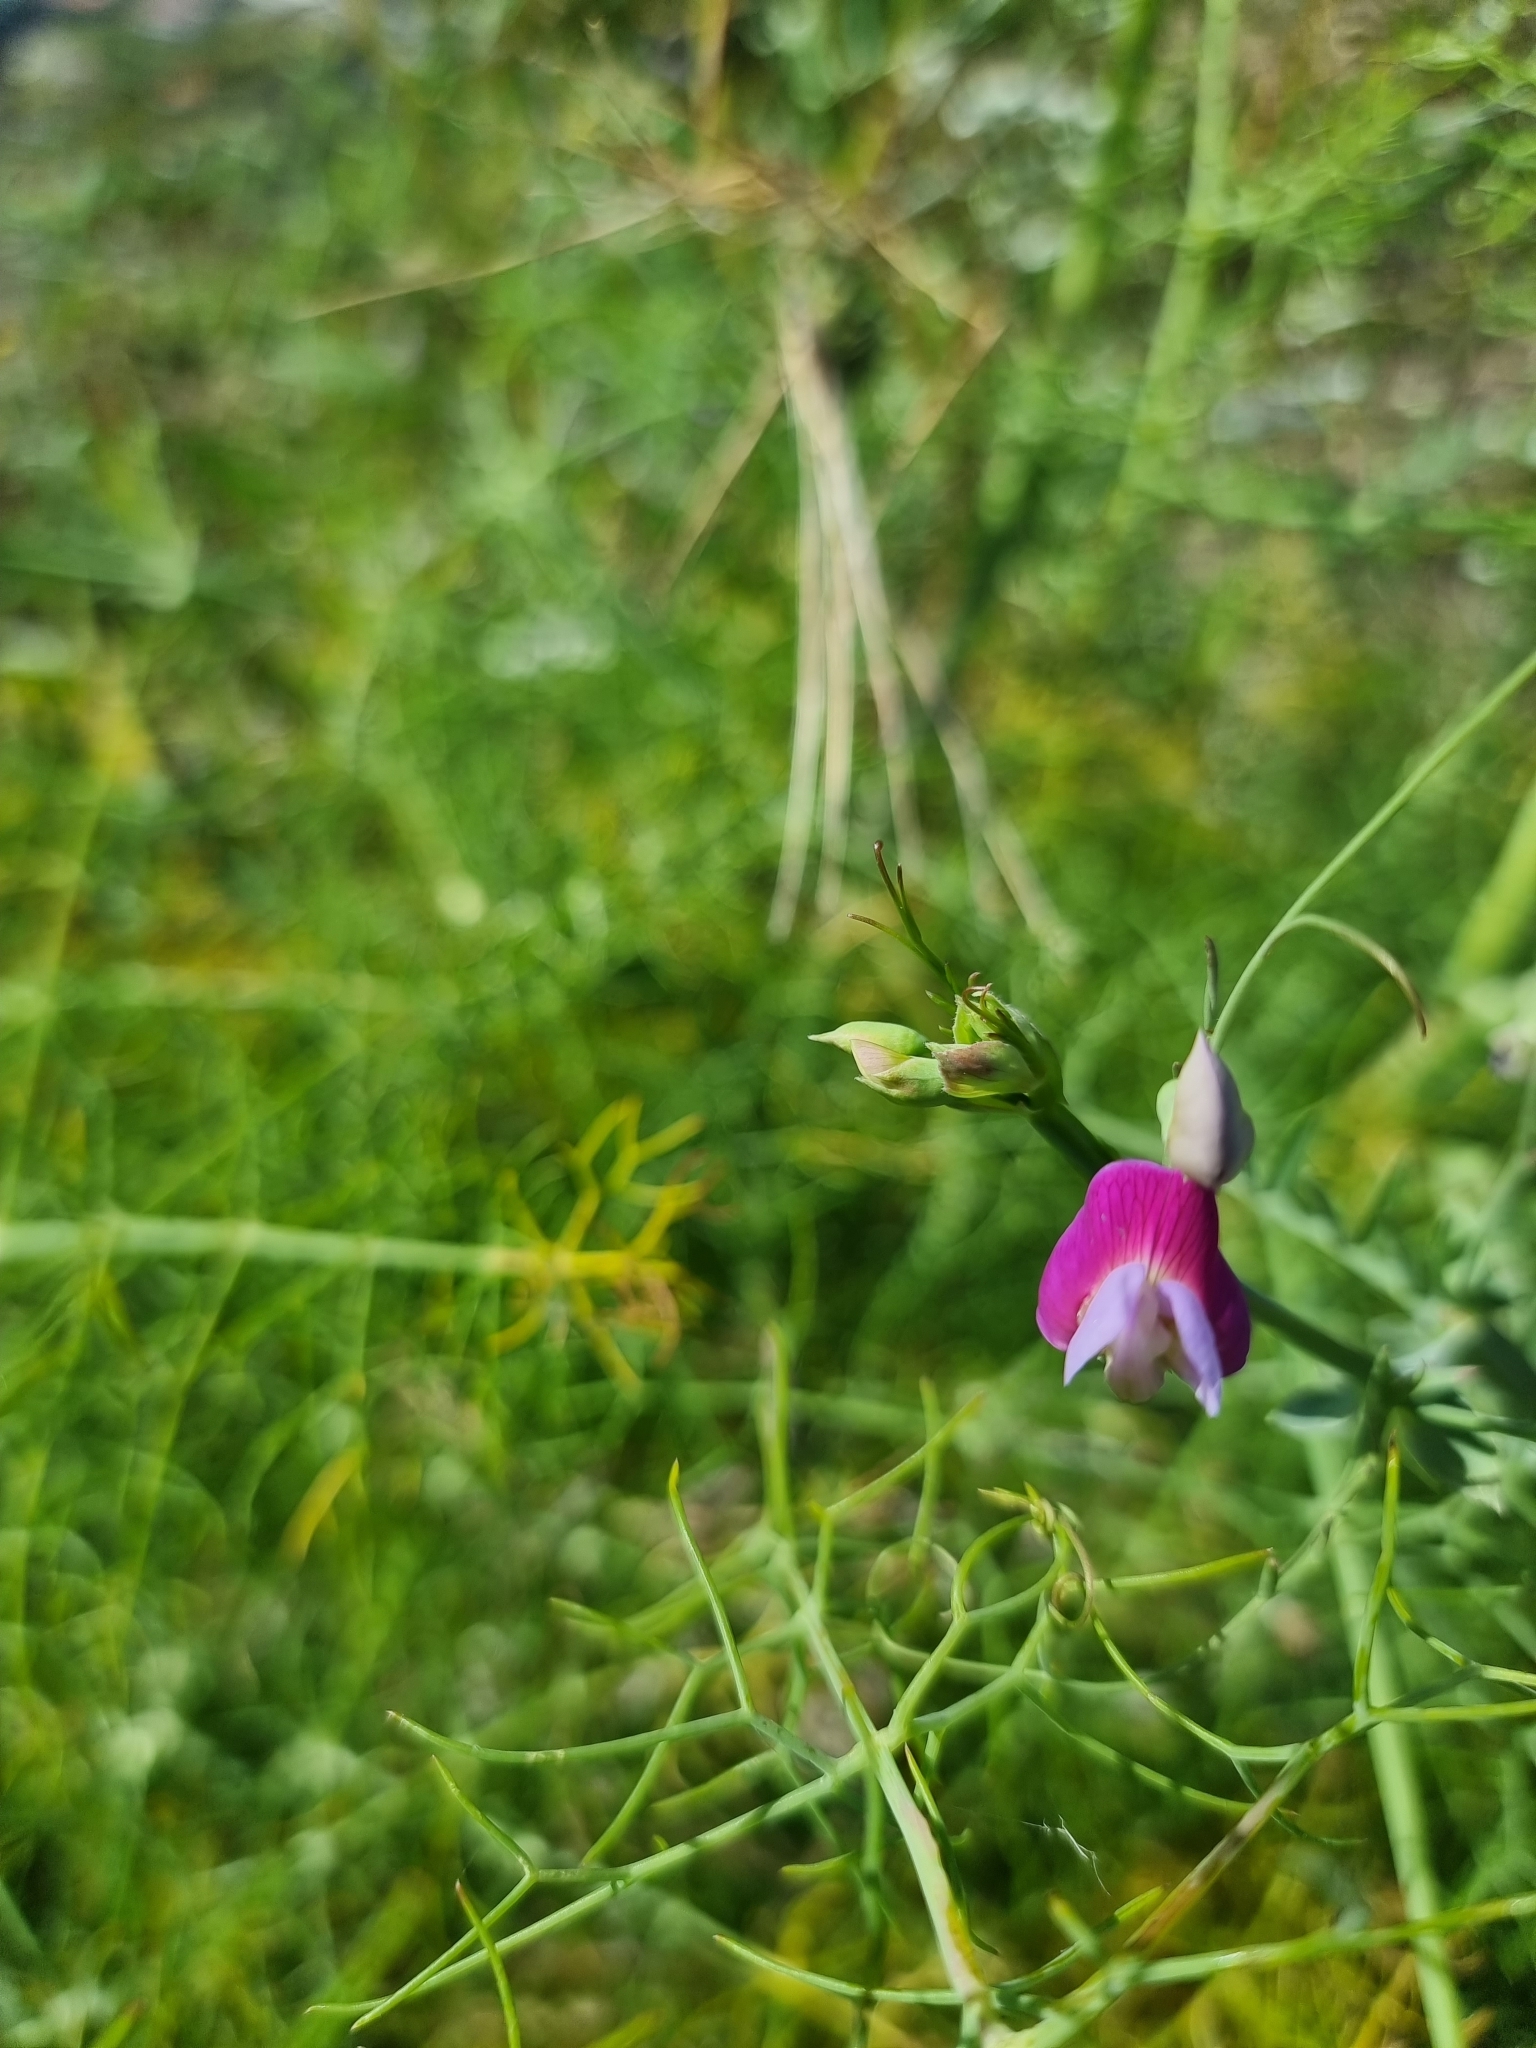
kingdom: Plantae
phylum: Tracheophyta
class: Magnoliopsida
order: Fabales
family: Fabaceae
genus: Lathyrus
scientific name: Lathyrus clymenum
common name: Spanish vetchling
